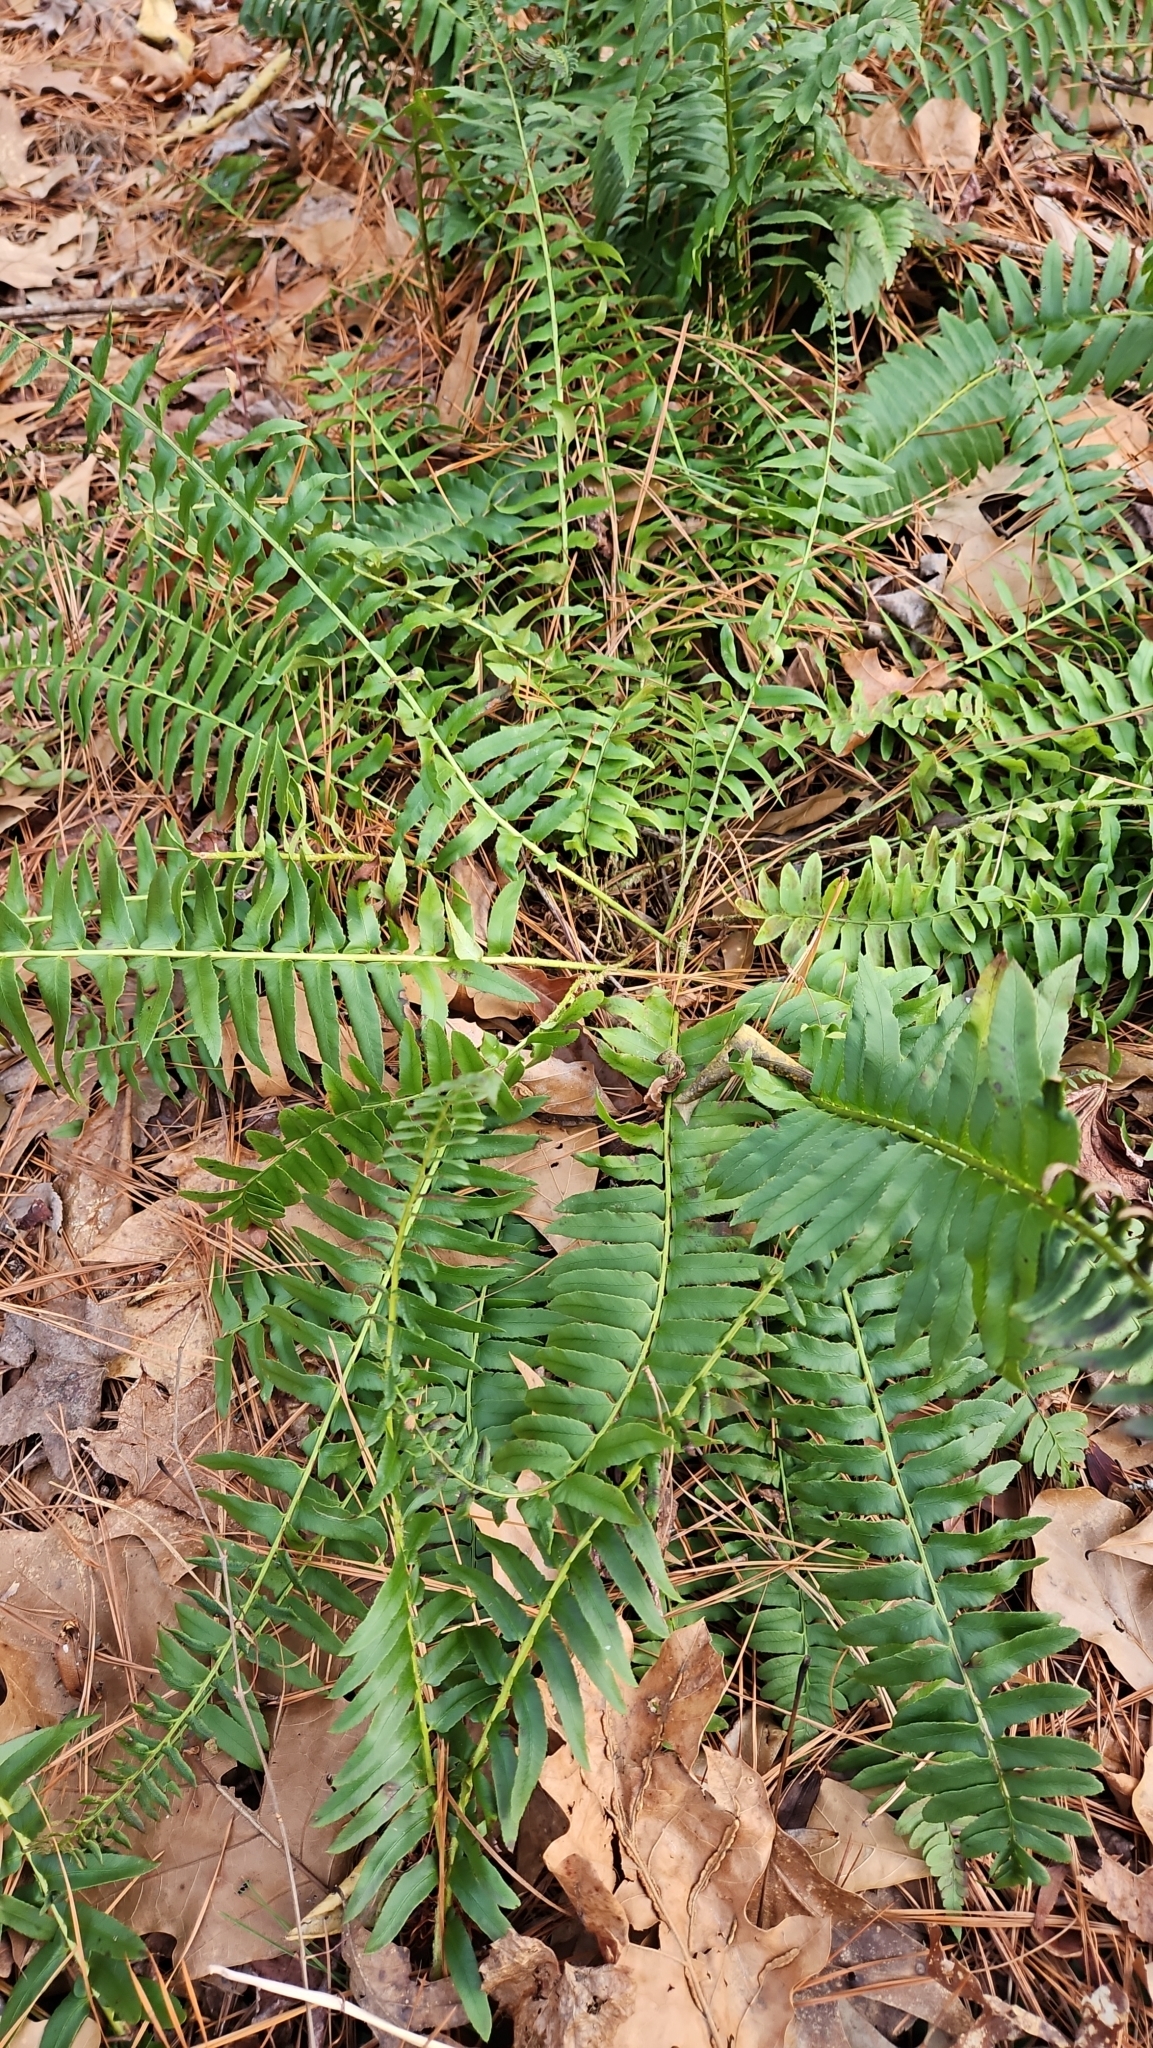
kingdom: Plantae
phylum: Tracheophyta
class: Polypodiopsida
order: Polypodiales
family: Dryopteridaceae
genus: Polystichum
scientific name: Polystichum acrostichoides
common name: Christmas fern
